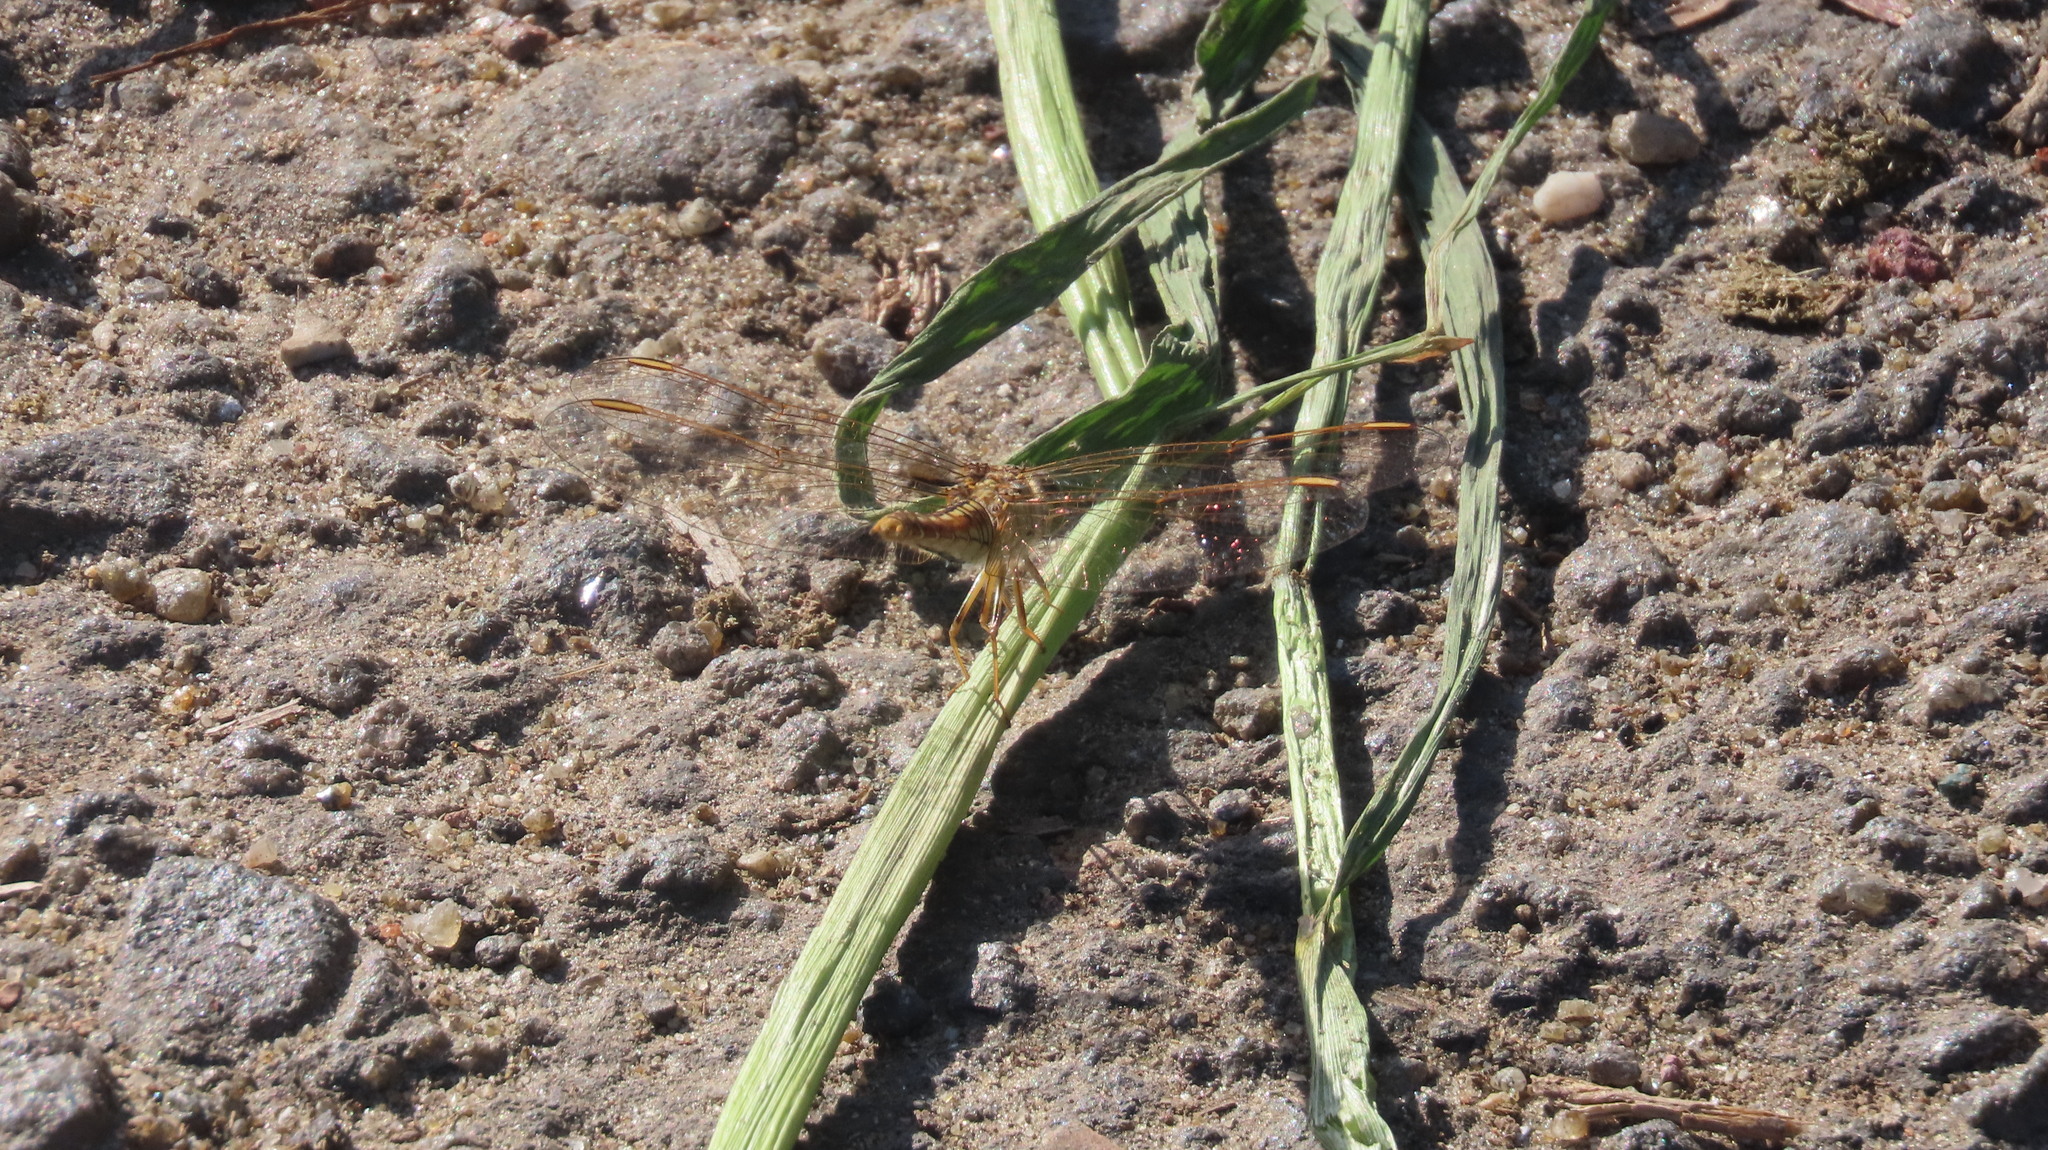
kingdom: Animalia
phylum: Arthropoda
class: Insecta
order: Odonata
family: Libellulidae
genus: Brachythemis
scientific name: Brachythemis contaminata
